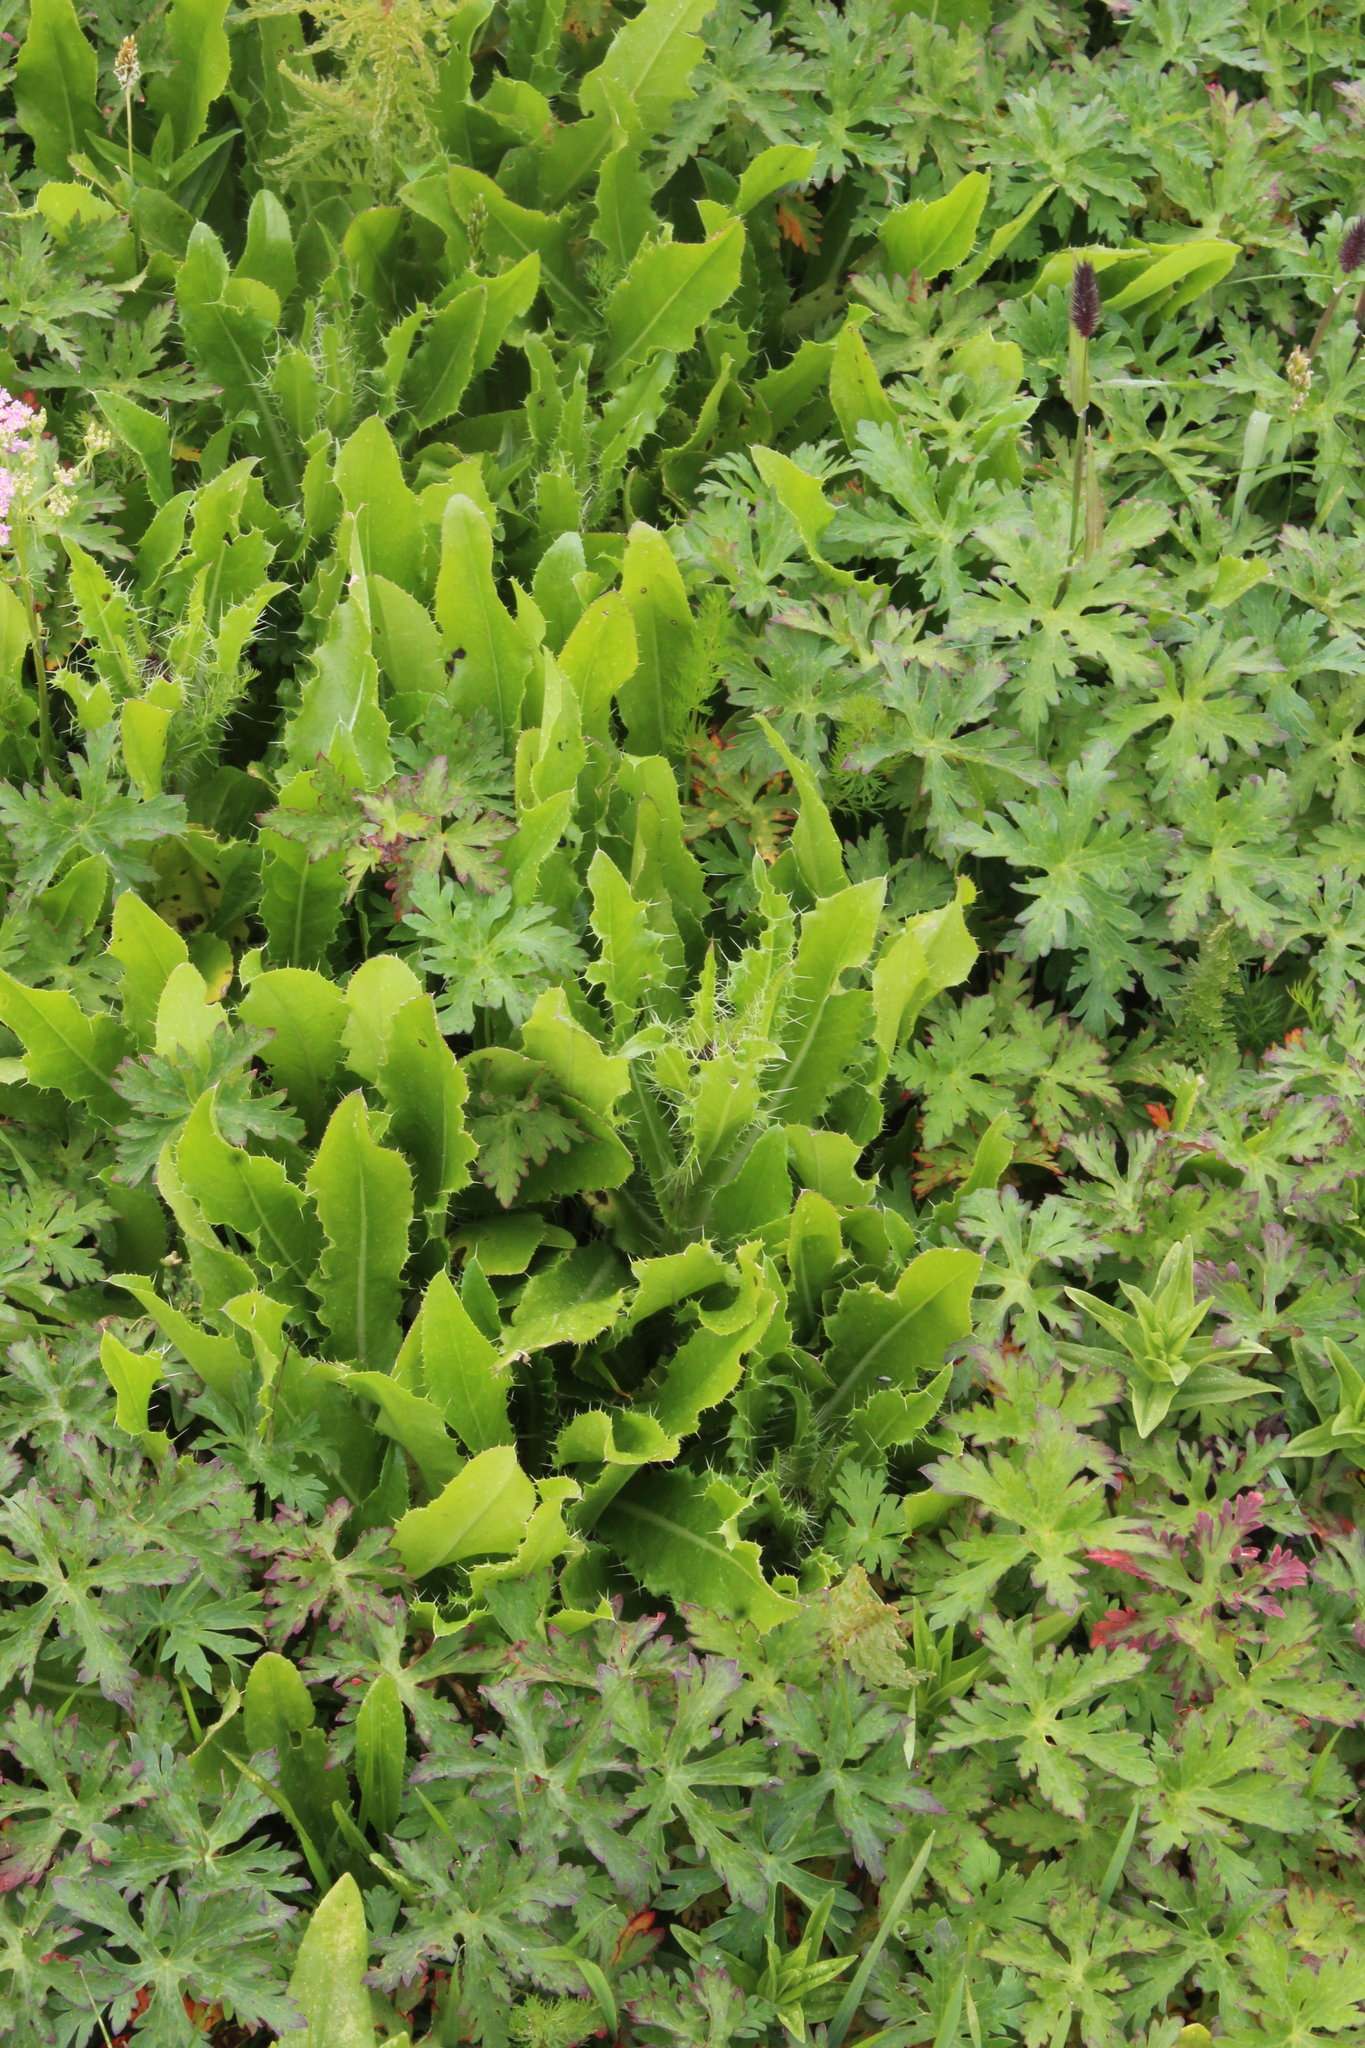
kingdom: Plantae
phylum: Tracheophyta
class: Magnoliopsida
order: Asterales
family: Asteraceae
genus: Cirsium
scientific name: Cirsium simplex
